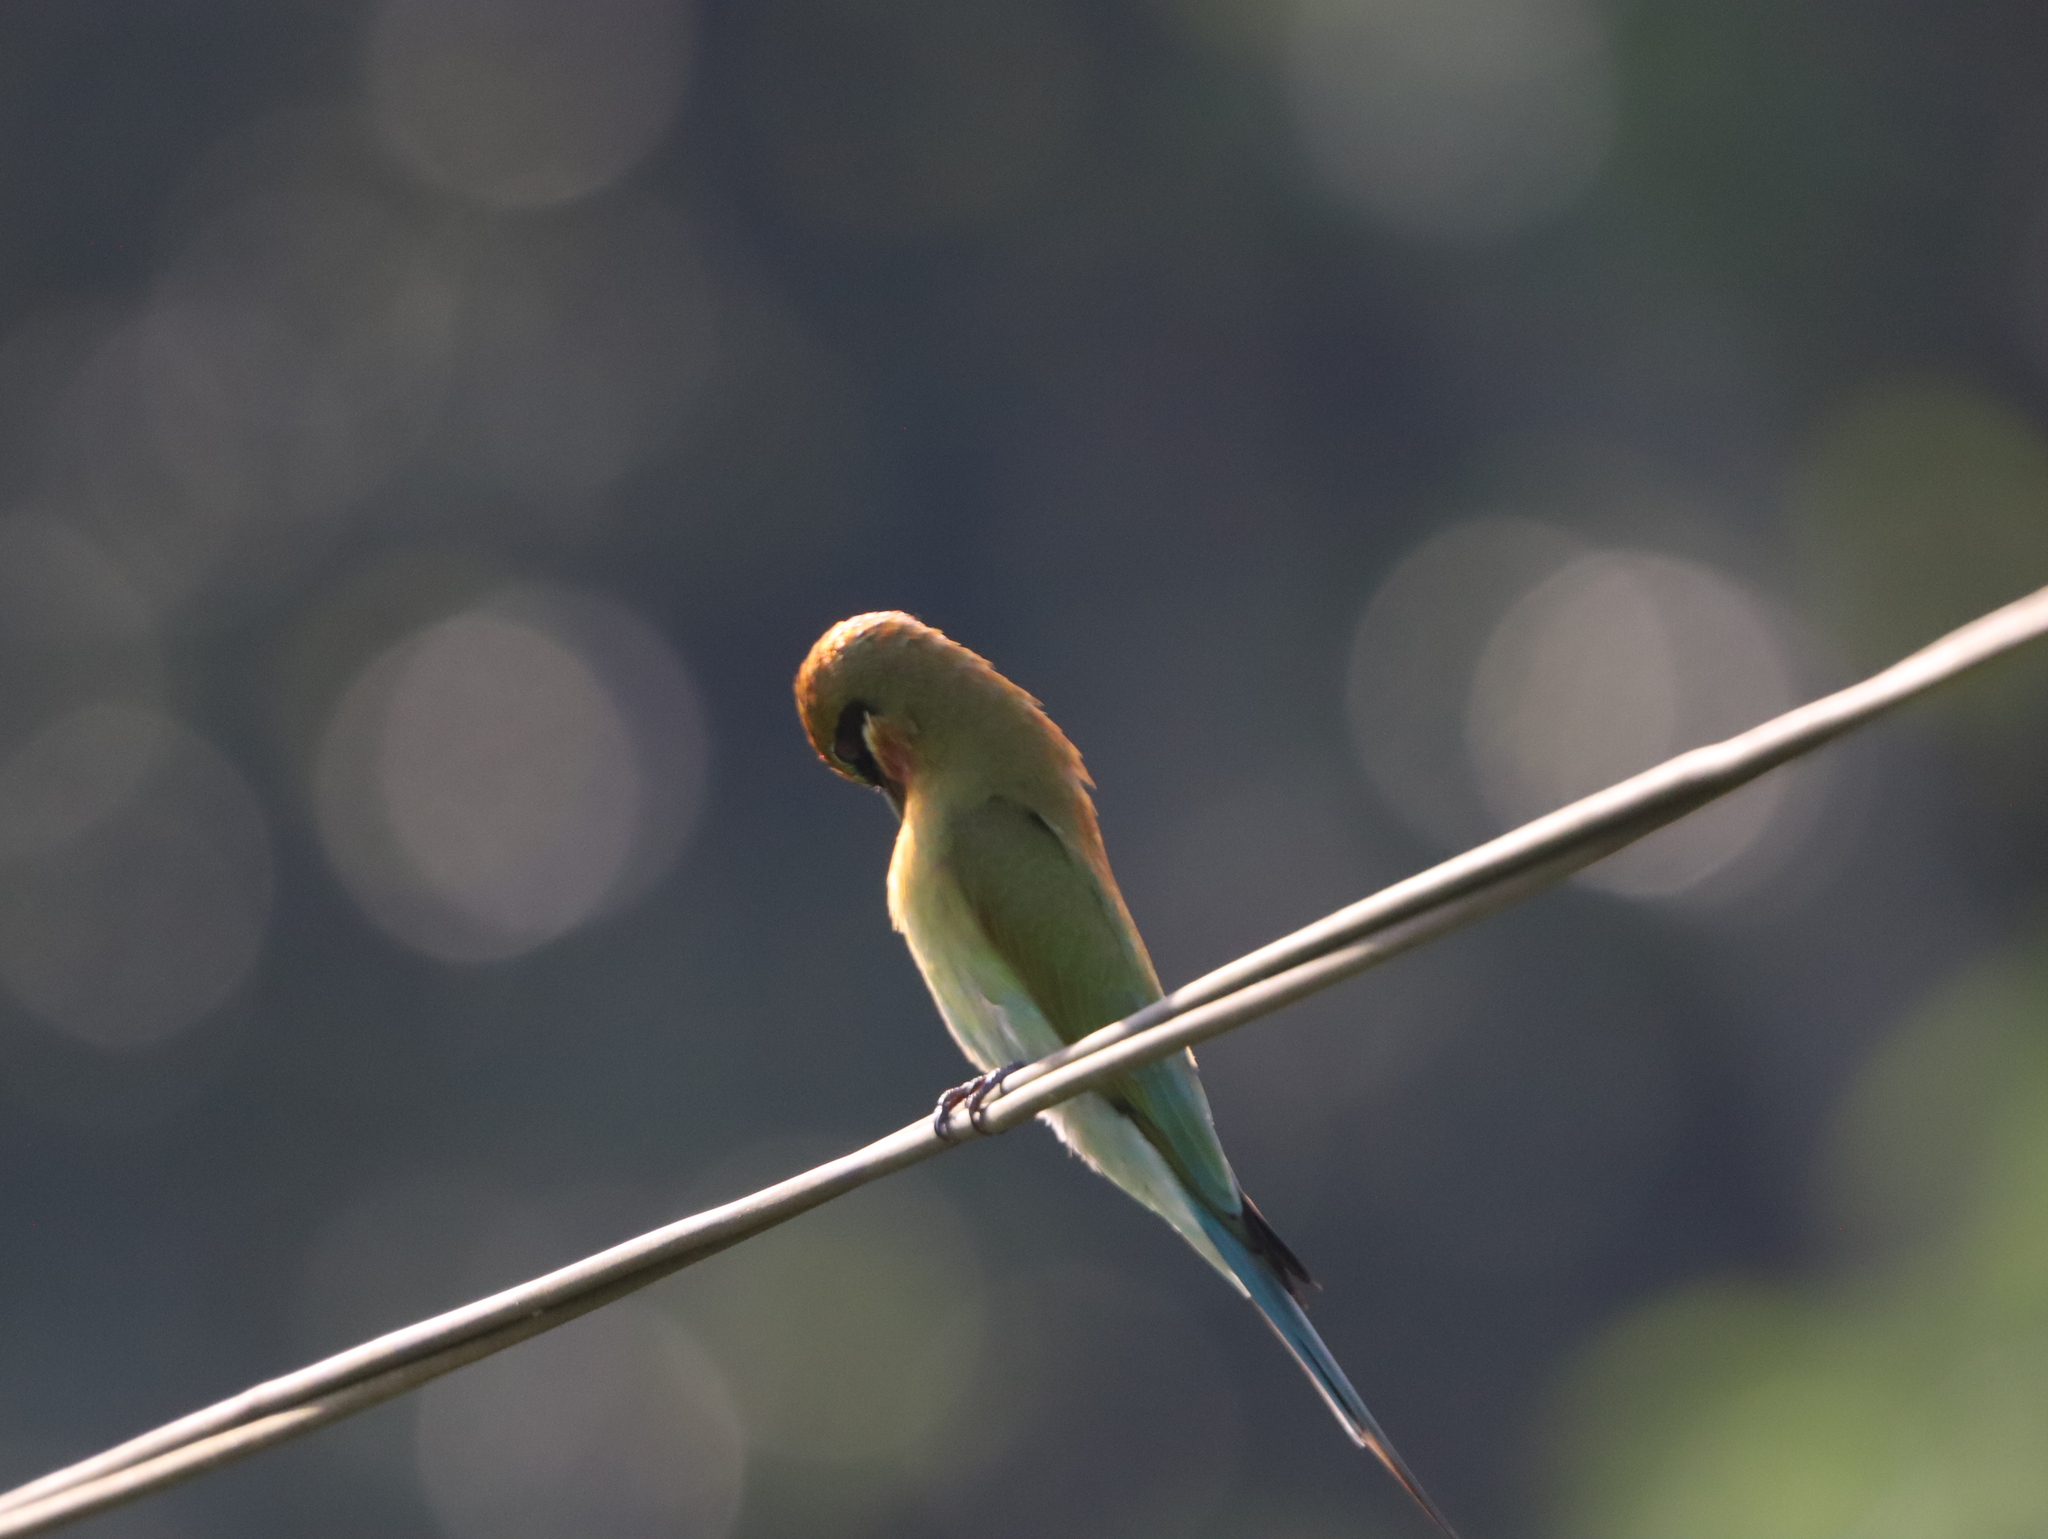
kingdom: Animalia
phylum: Chordata
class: Aves
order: Coraciiformes
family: Meropidae
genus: Merops
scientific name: Merops philippinus
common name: Blue-tailed bee-eater
